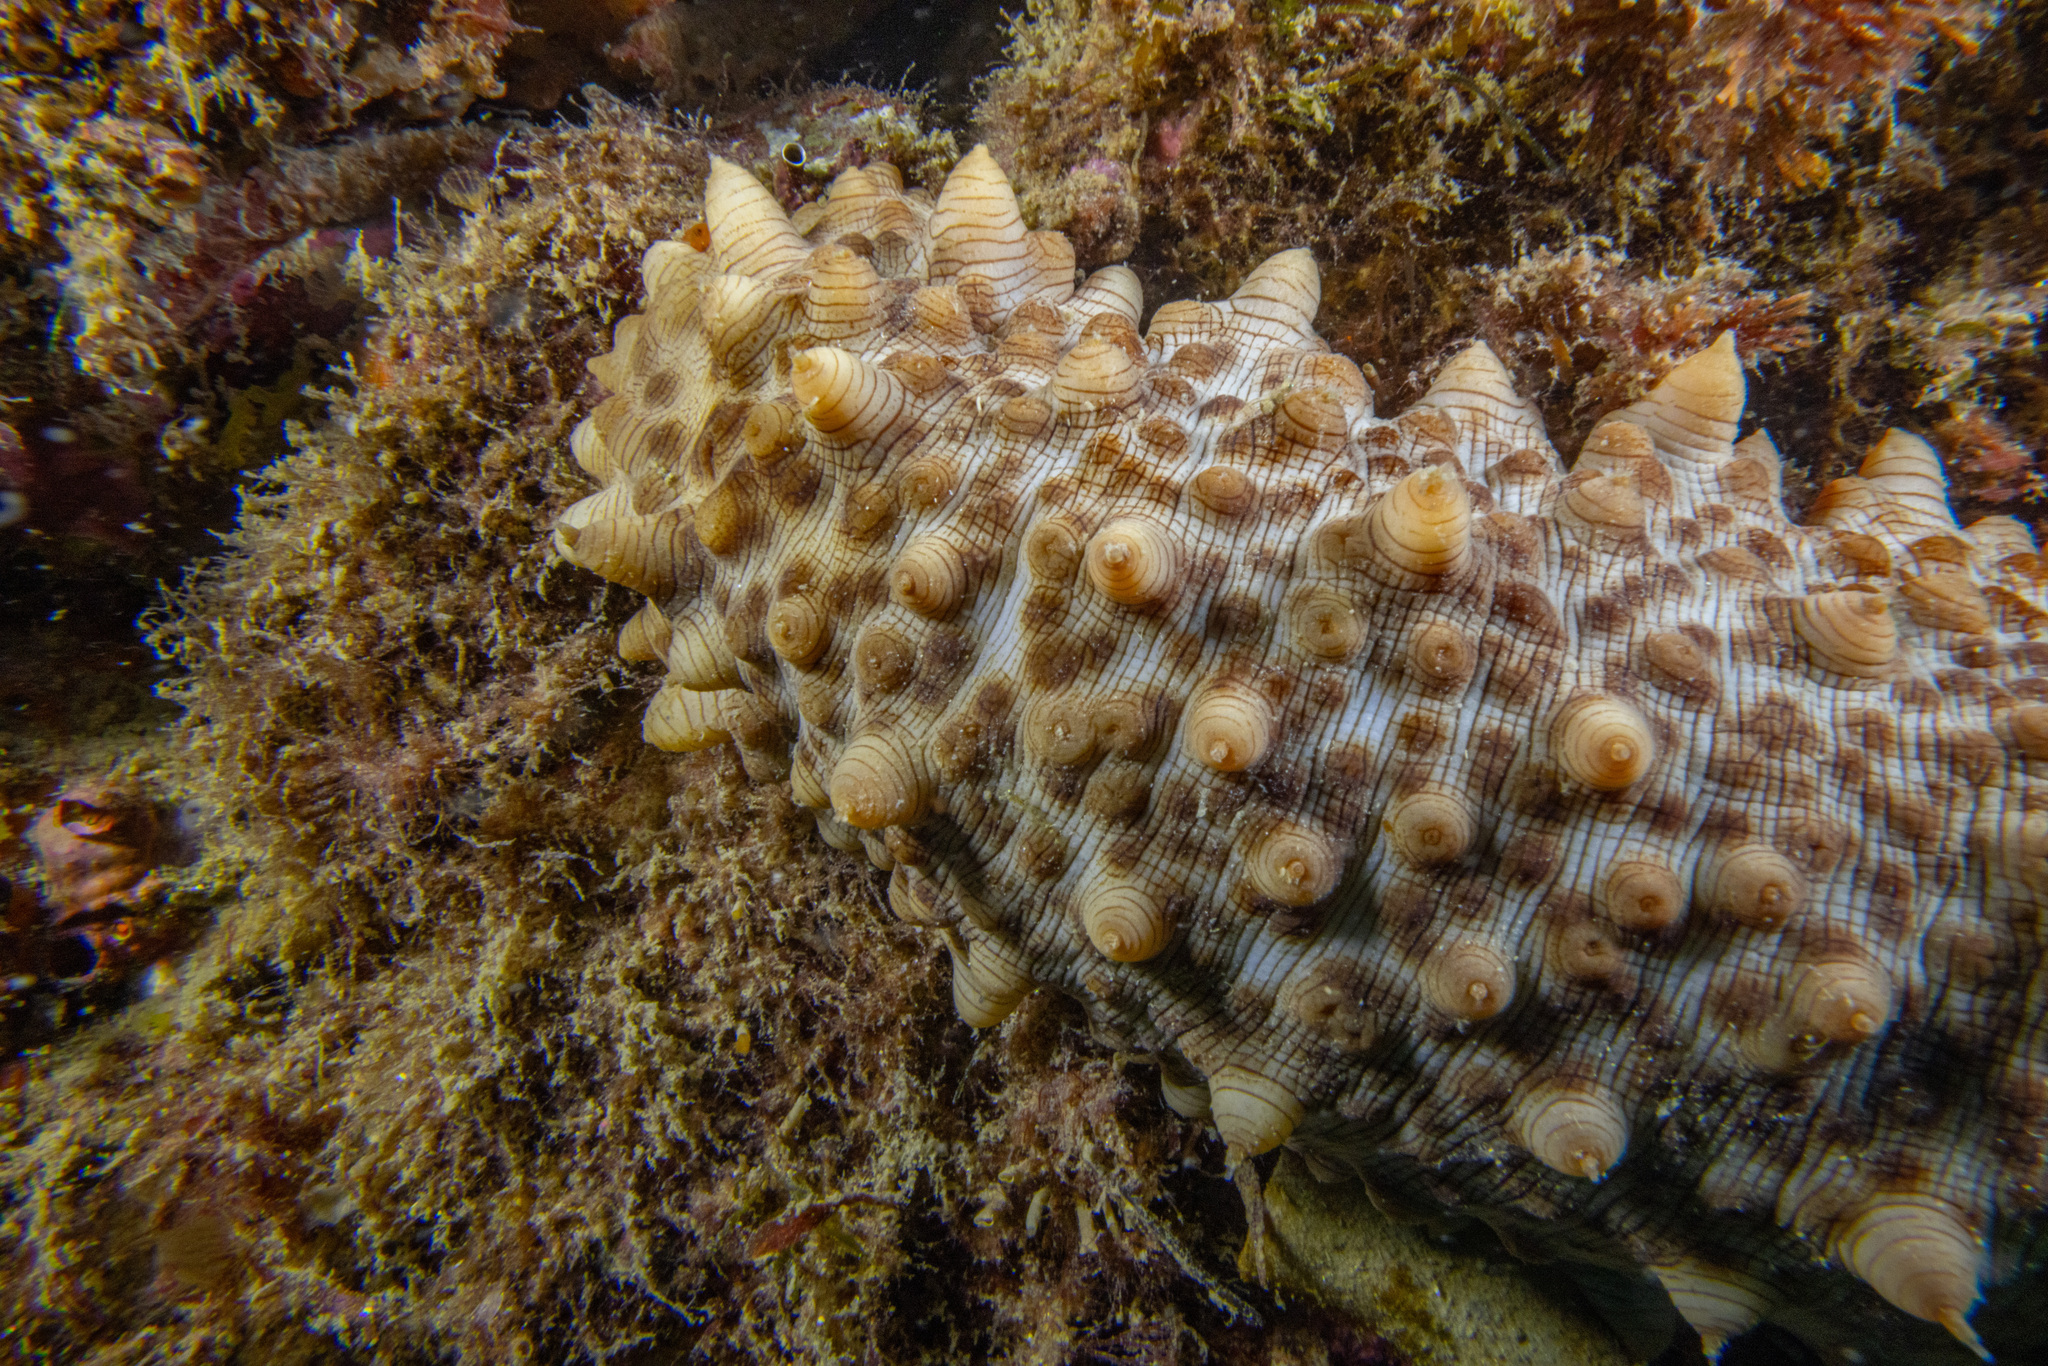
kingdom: Animalia
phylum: Echinodermata
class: Holothuroidea
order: Synallactida
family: Stichopodidae
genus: Australostichopus
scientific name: Australostichopus mollis
